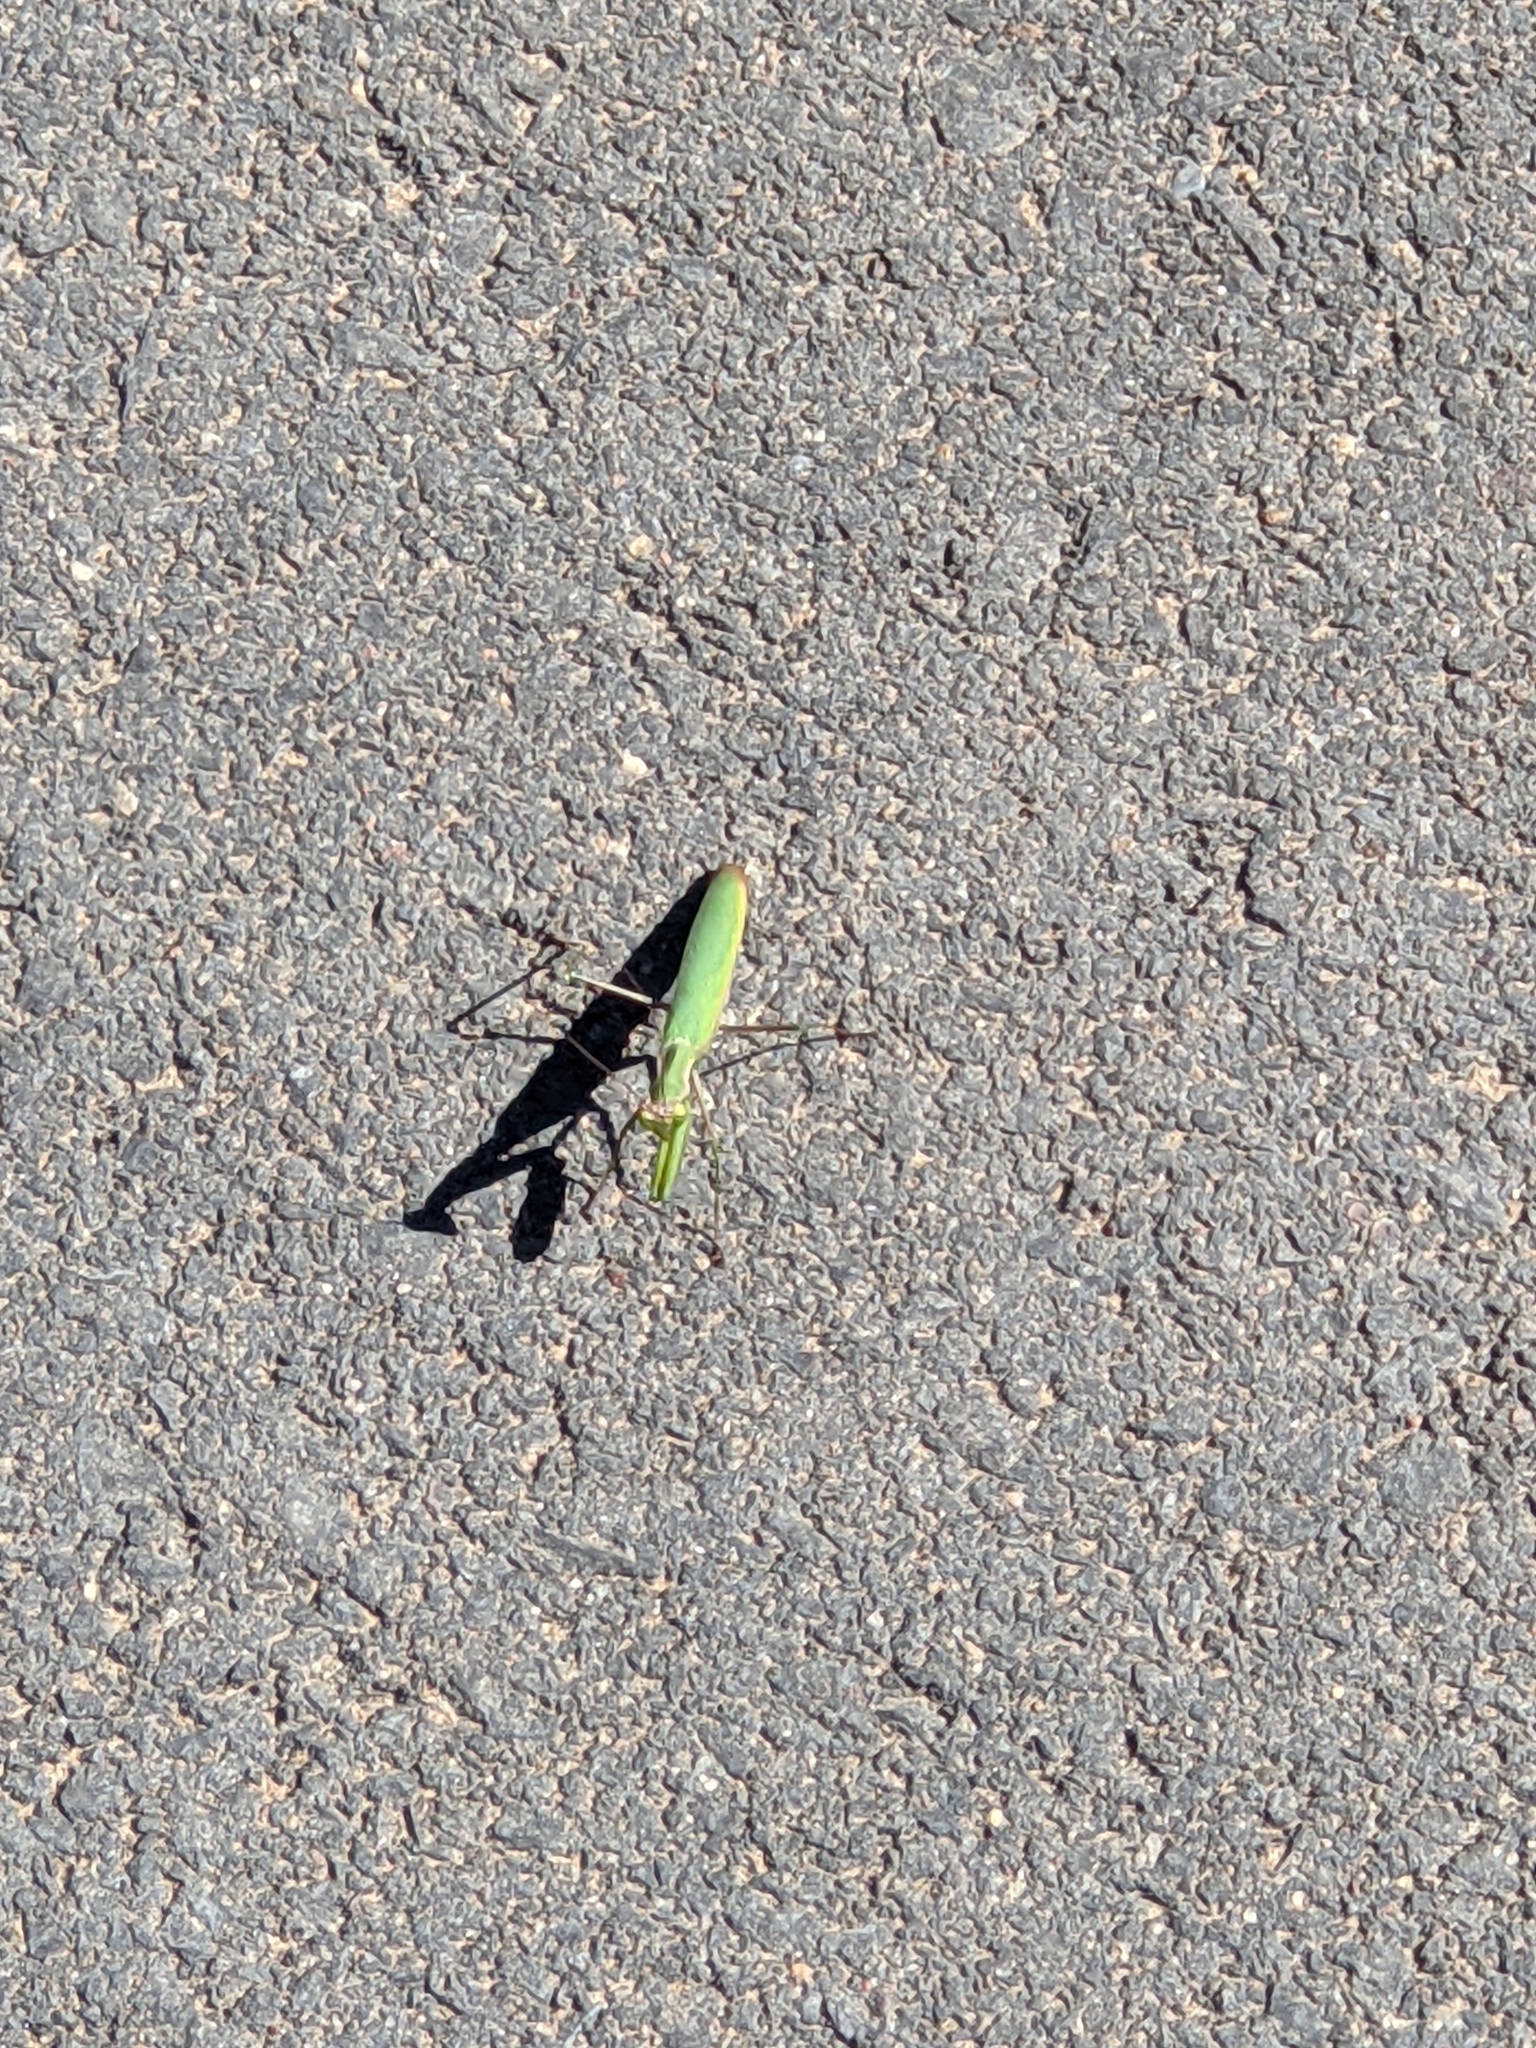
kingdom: Animalia
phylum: Arthropoda
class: Insecta
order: Mantodea
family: Mantidae
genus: Mantis
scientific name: Mantis religiosa
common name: Praying mantis
